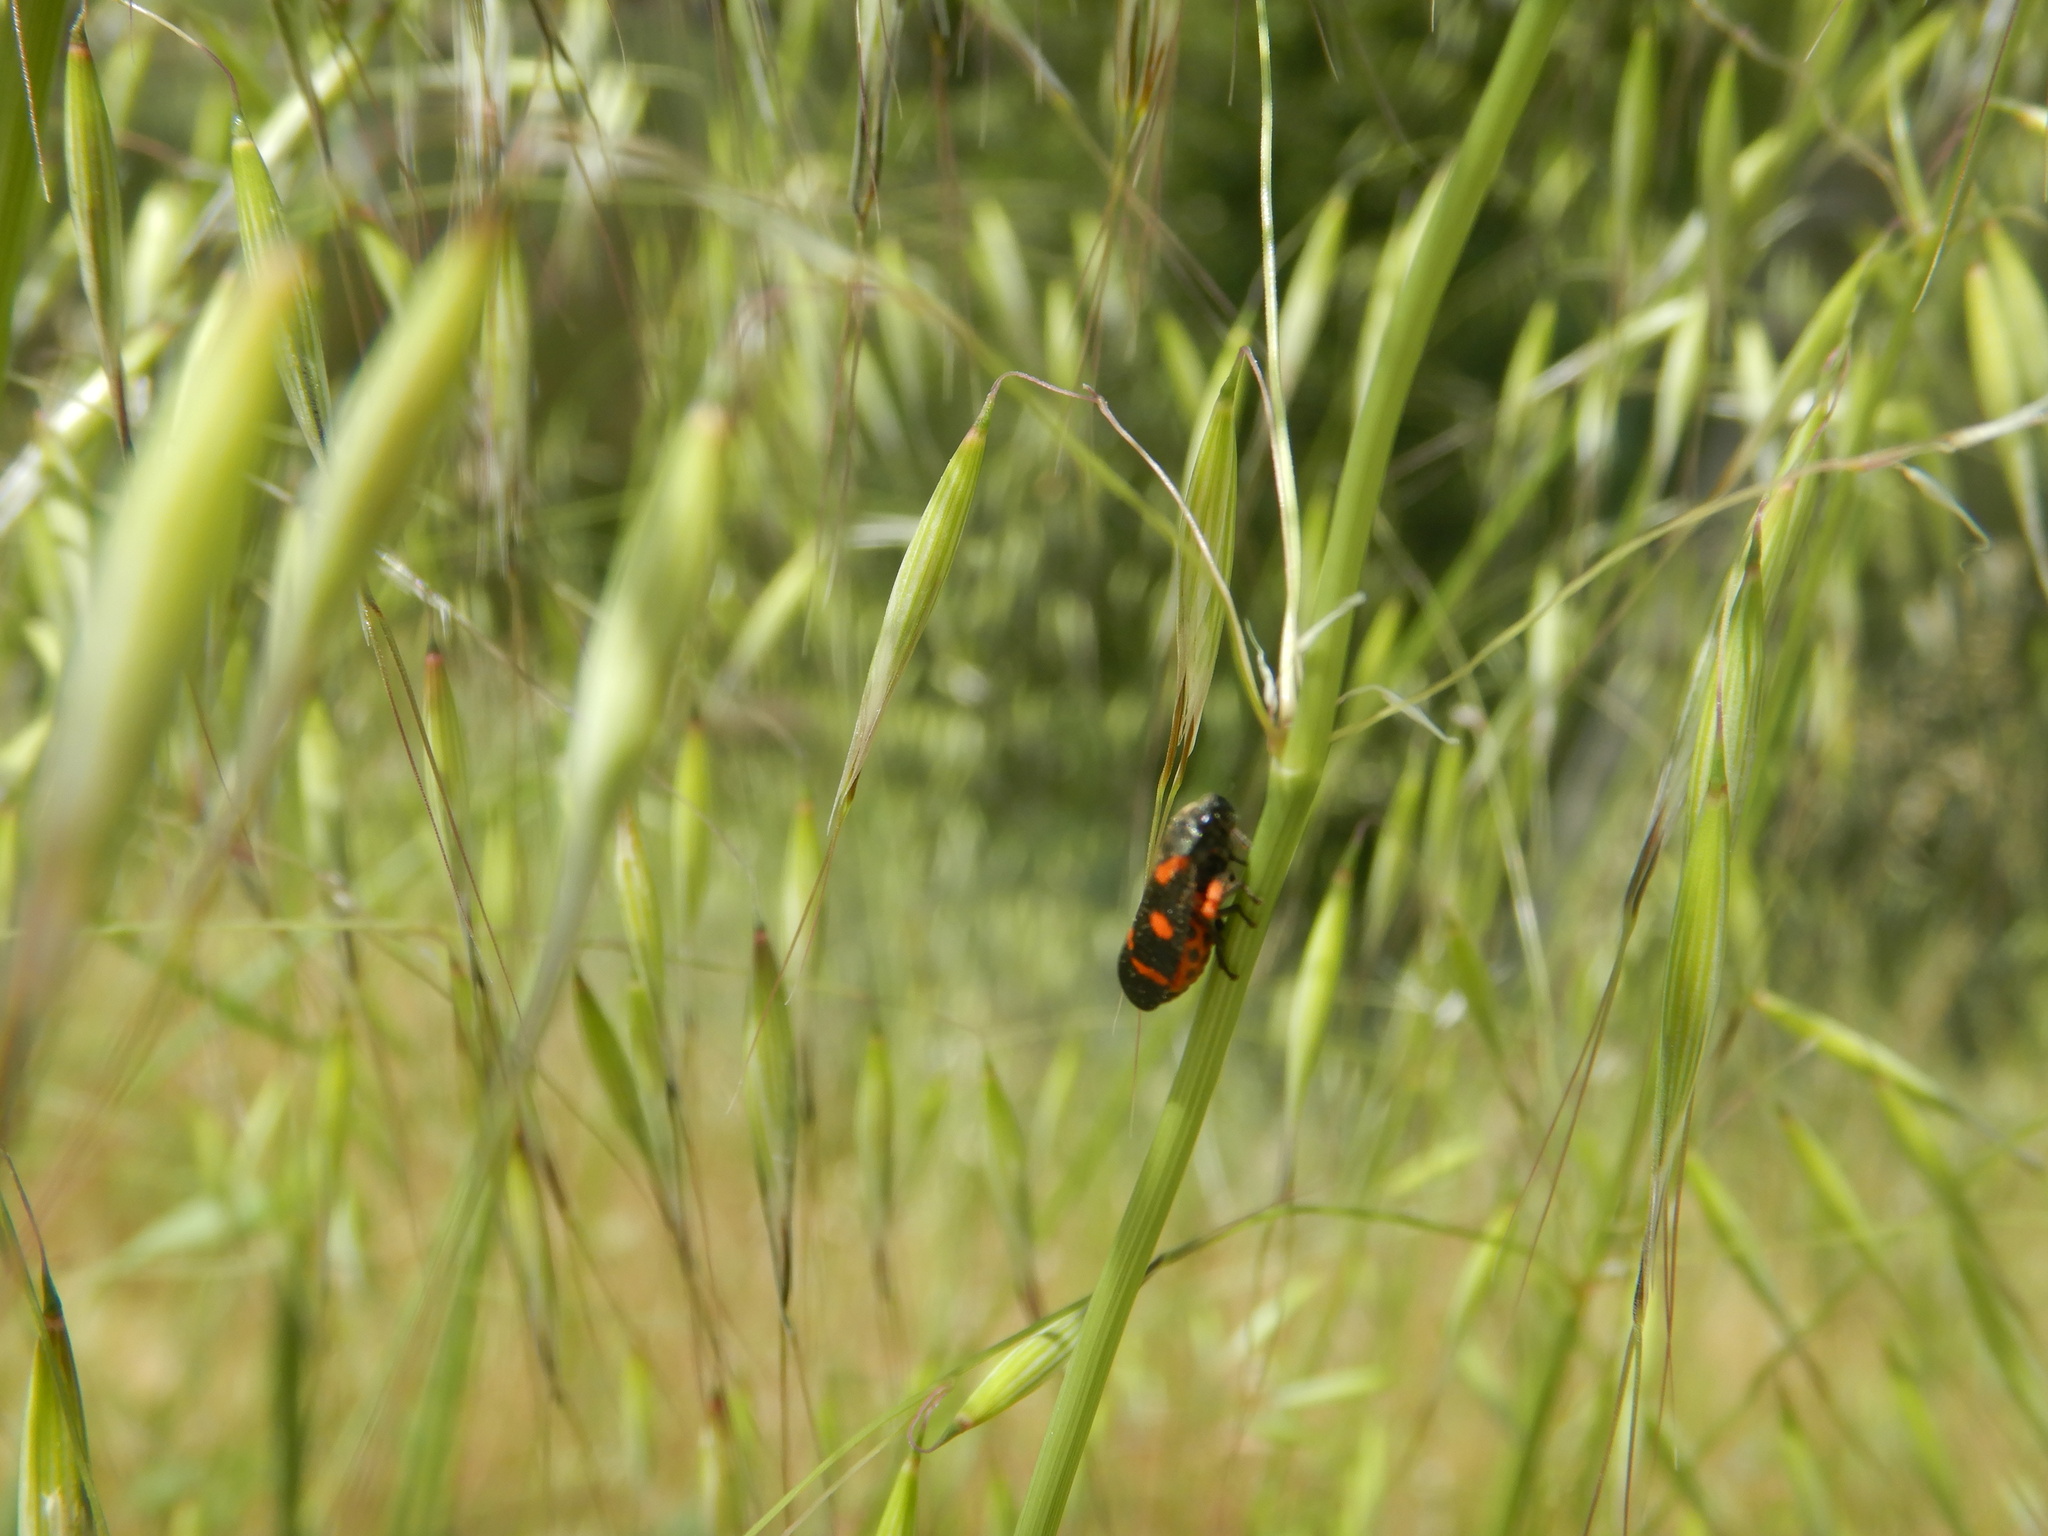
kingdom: Animalia
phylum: Arthropoda
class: Insecta
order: Hemiptera
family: Cercopidae
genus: Cercopis
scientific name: Cercopis intermedia
